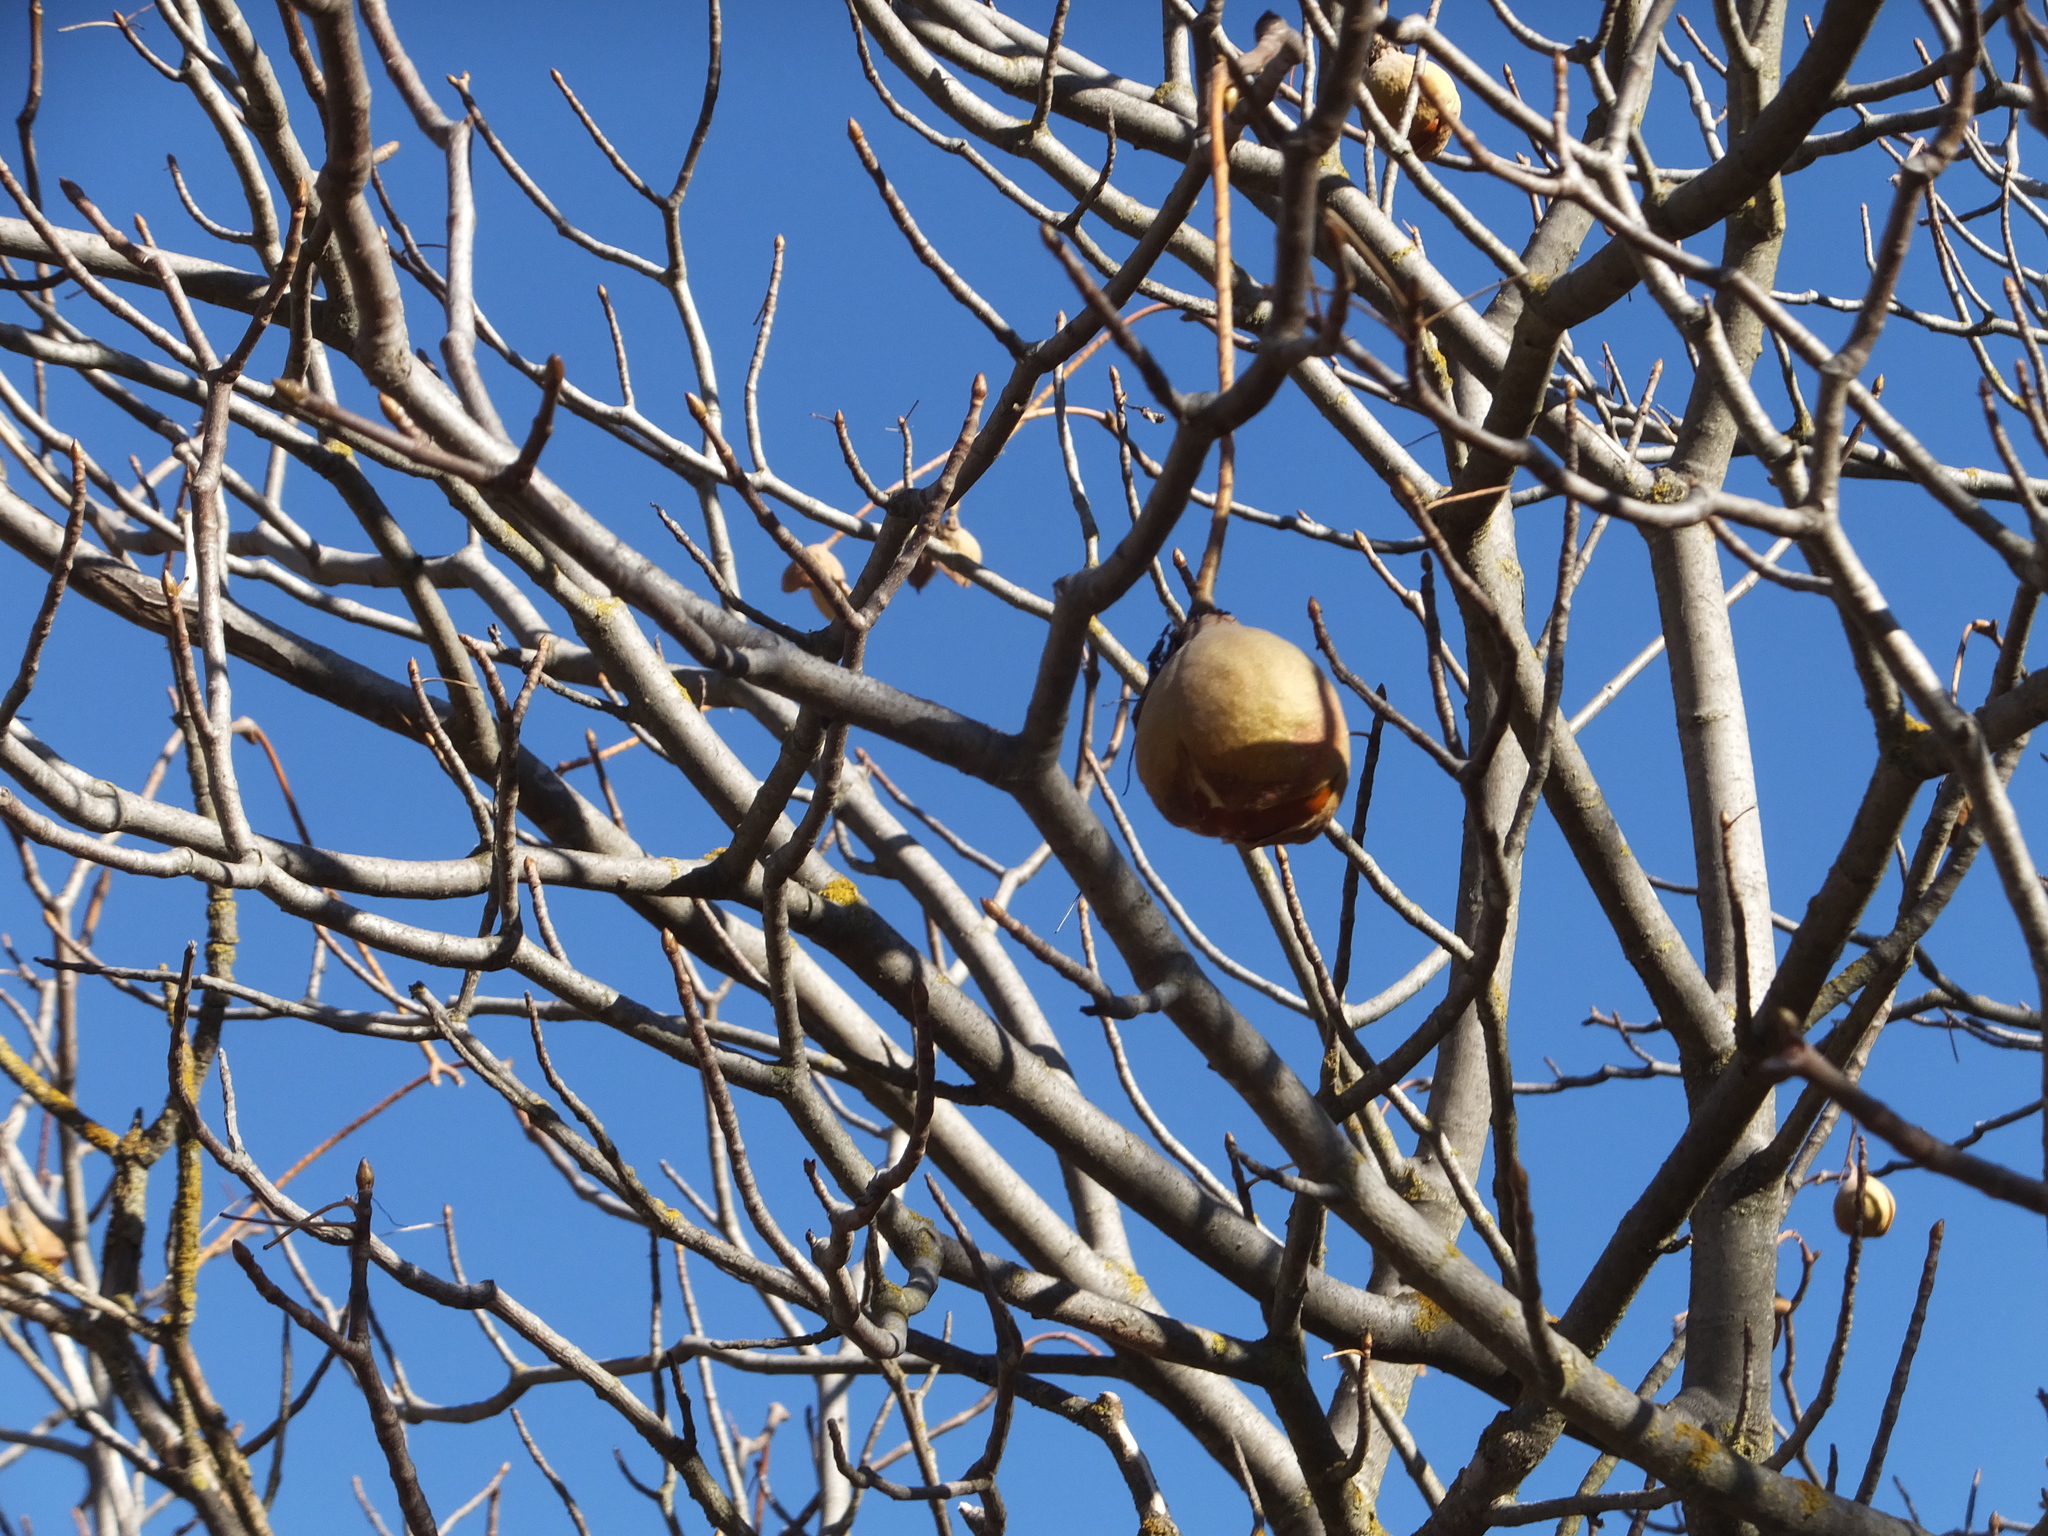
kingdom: Plantae
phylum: Tracheophyta
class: Magnoliopsida
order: Sapindales
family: Sapindaceae
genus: Aesculus
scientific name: Aesculus californica
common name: California buckeye
